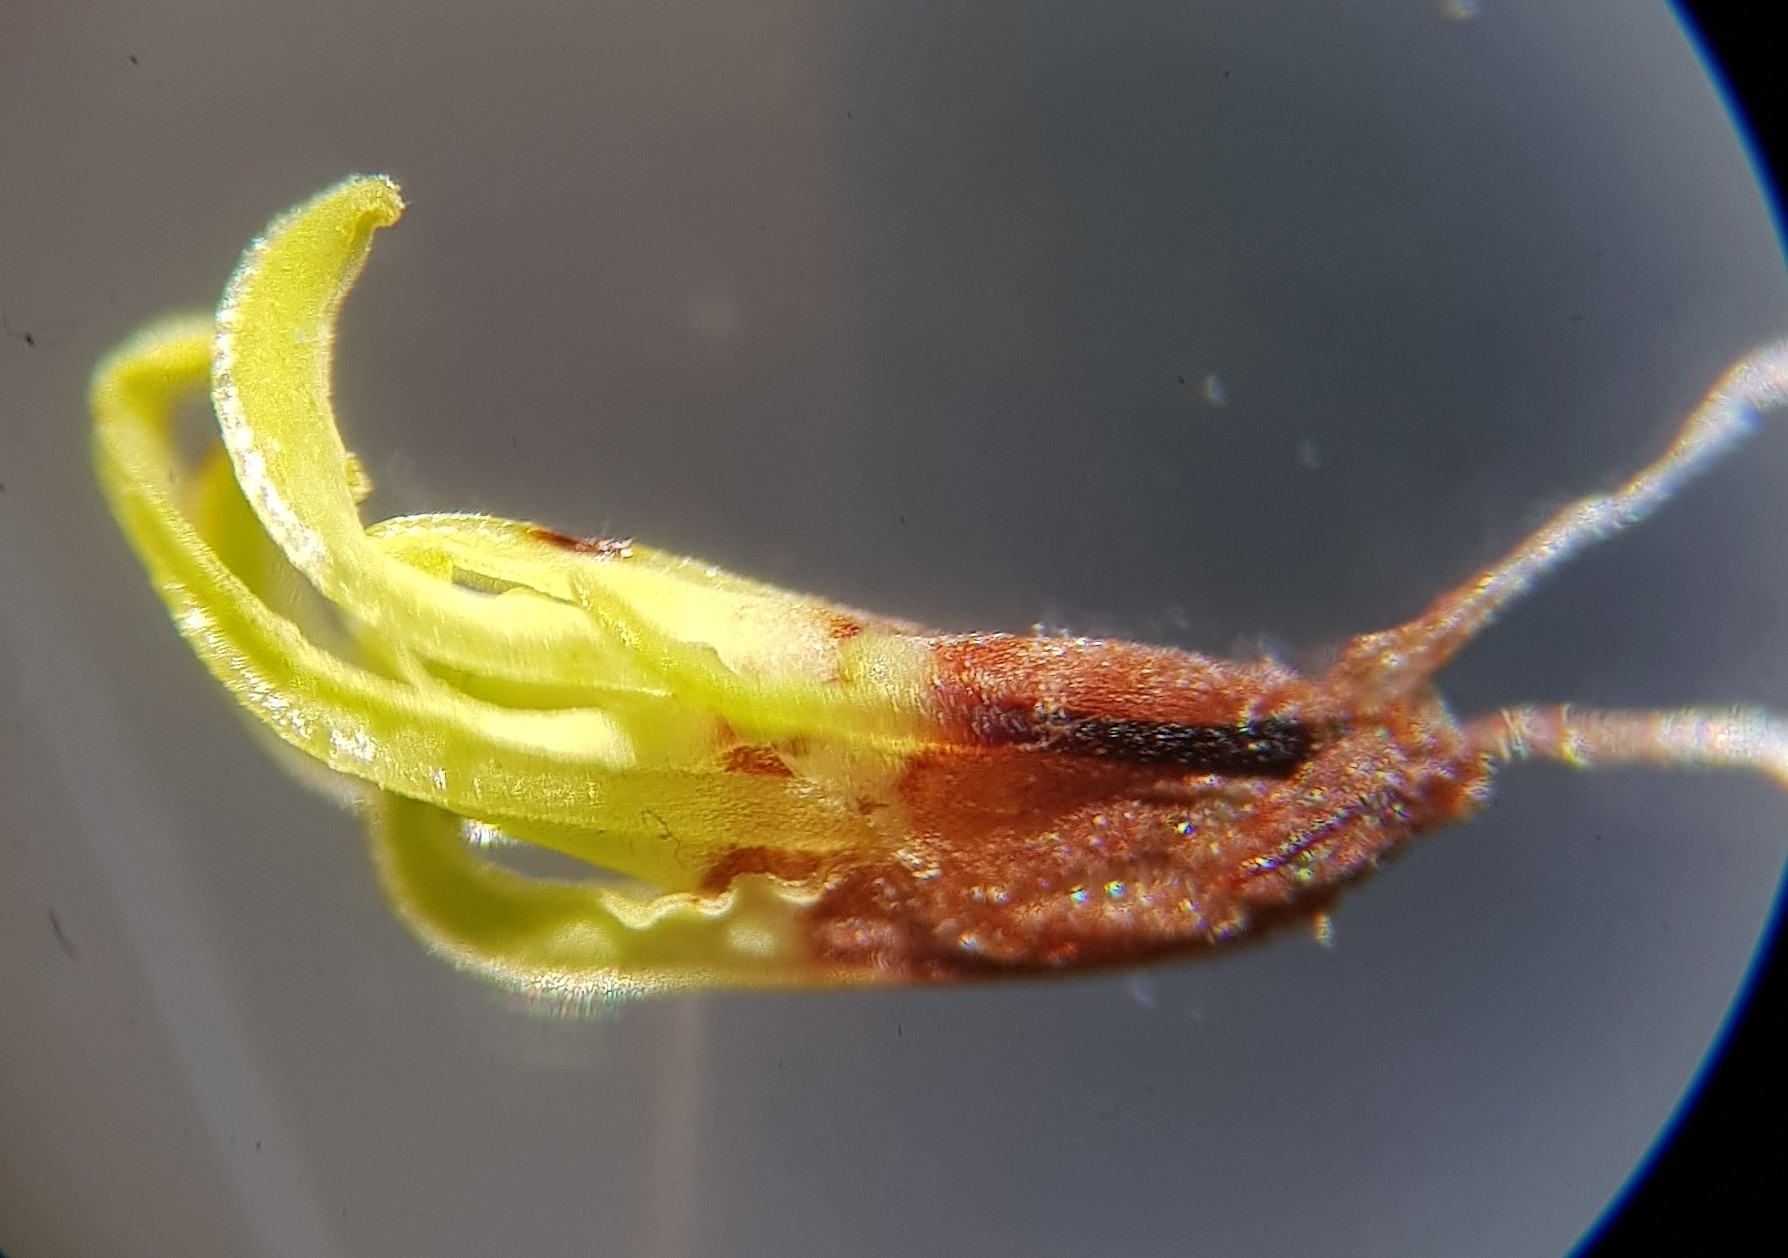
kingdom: Plantae
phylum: Bryophyta
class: Bryopsida
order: Encalyptales
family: Encalyptaceae
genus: Encalypta
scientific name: Encalypta streptocarpa
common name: Spiral extinguisher-moss
